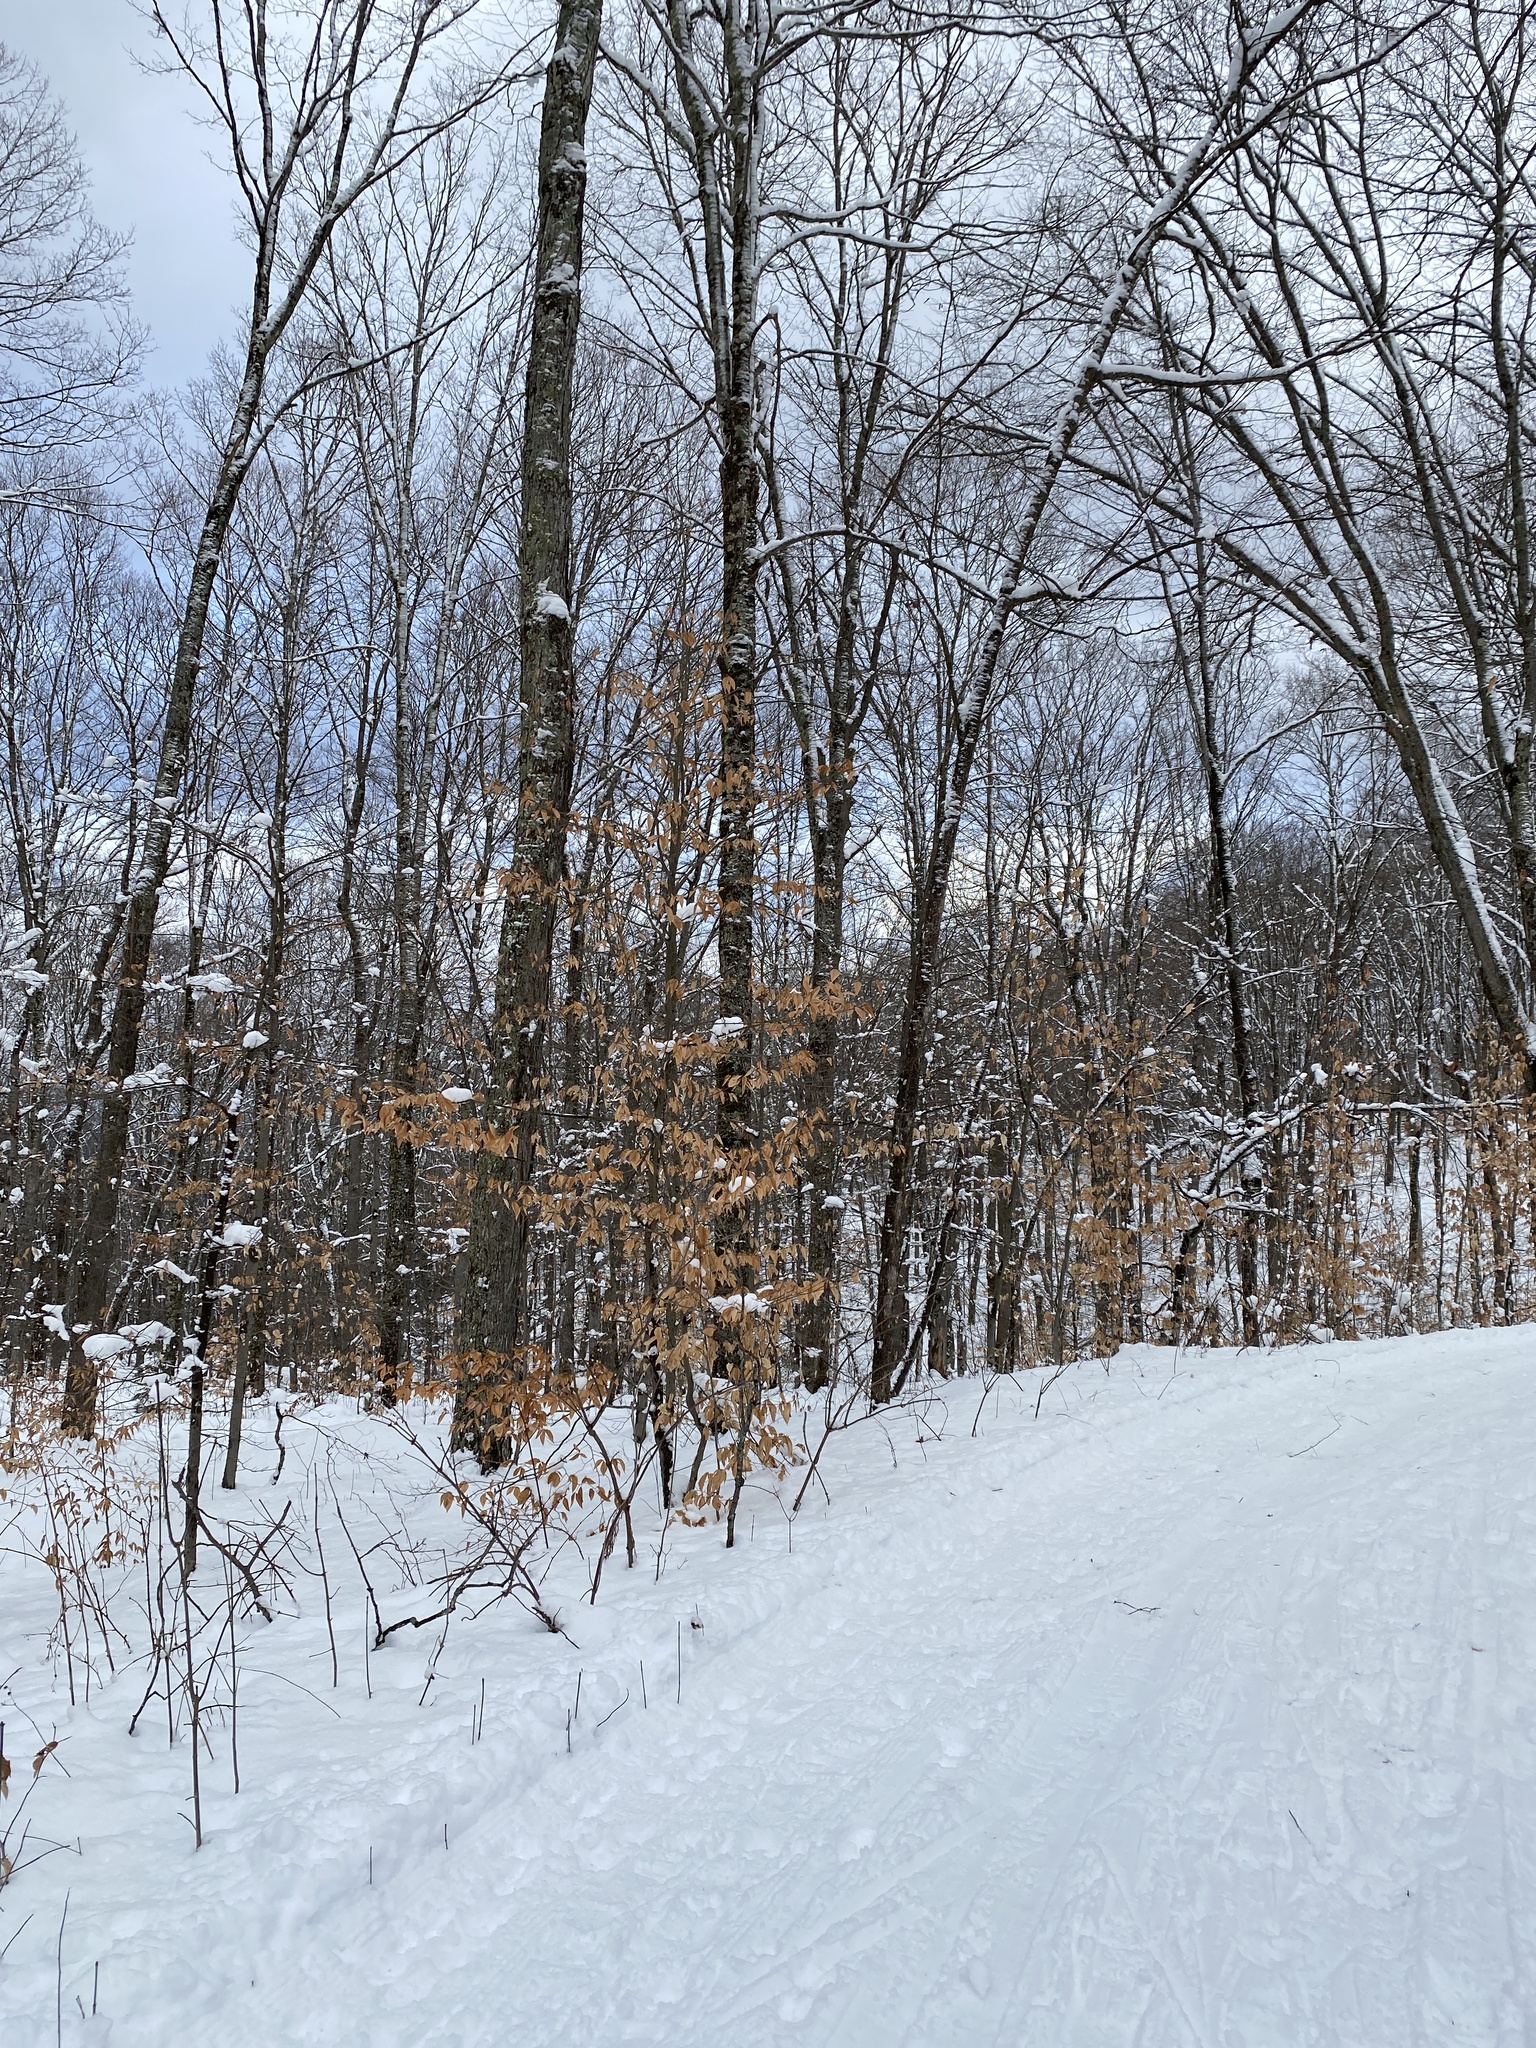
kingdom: Plantae
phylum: Tracheophyta
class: Magnoliopsida
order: Fagales
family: Fagaceae
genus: Fagus
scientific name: Fagus grandifolia
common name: American beech
